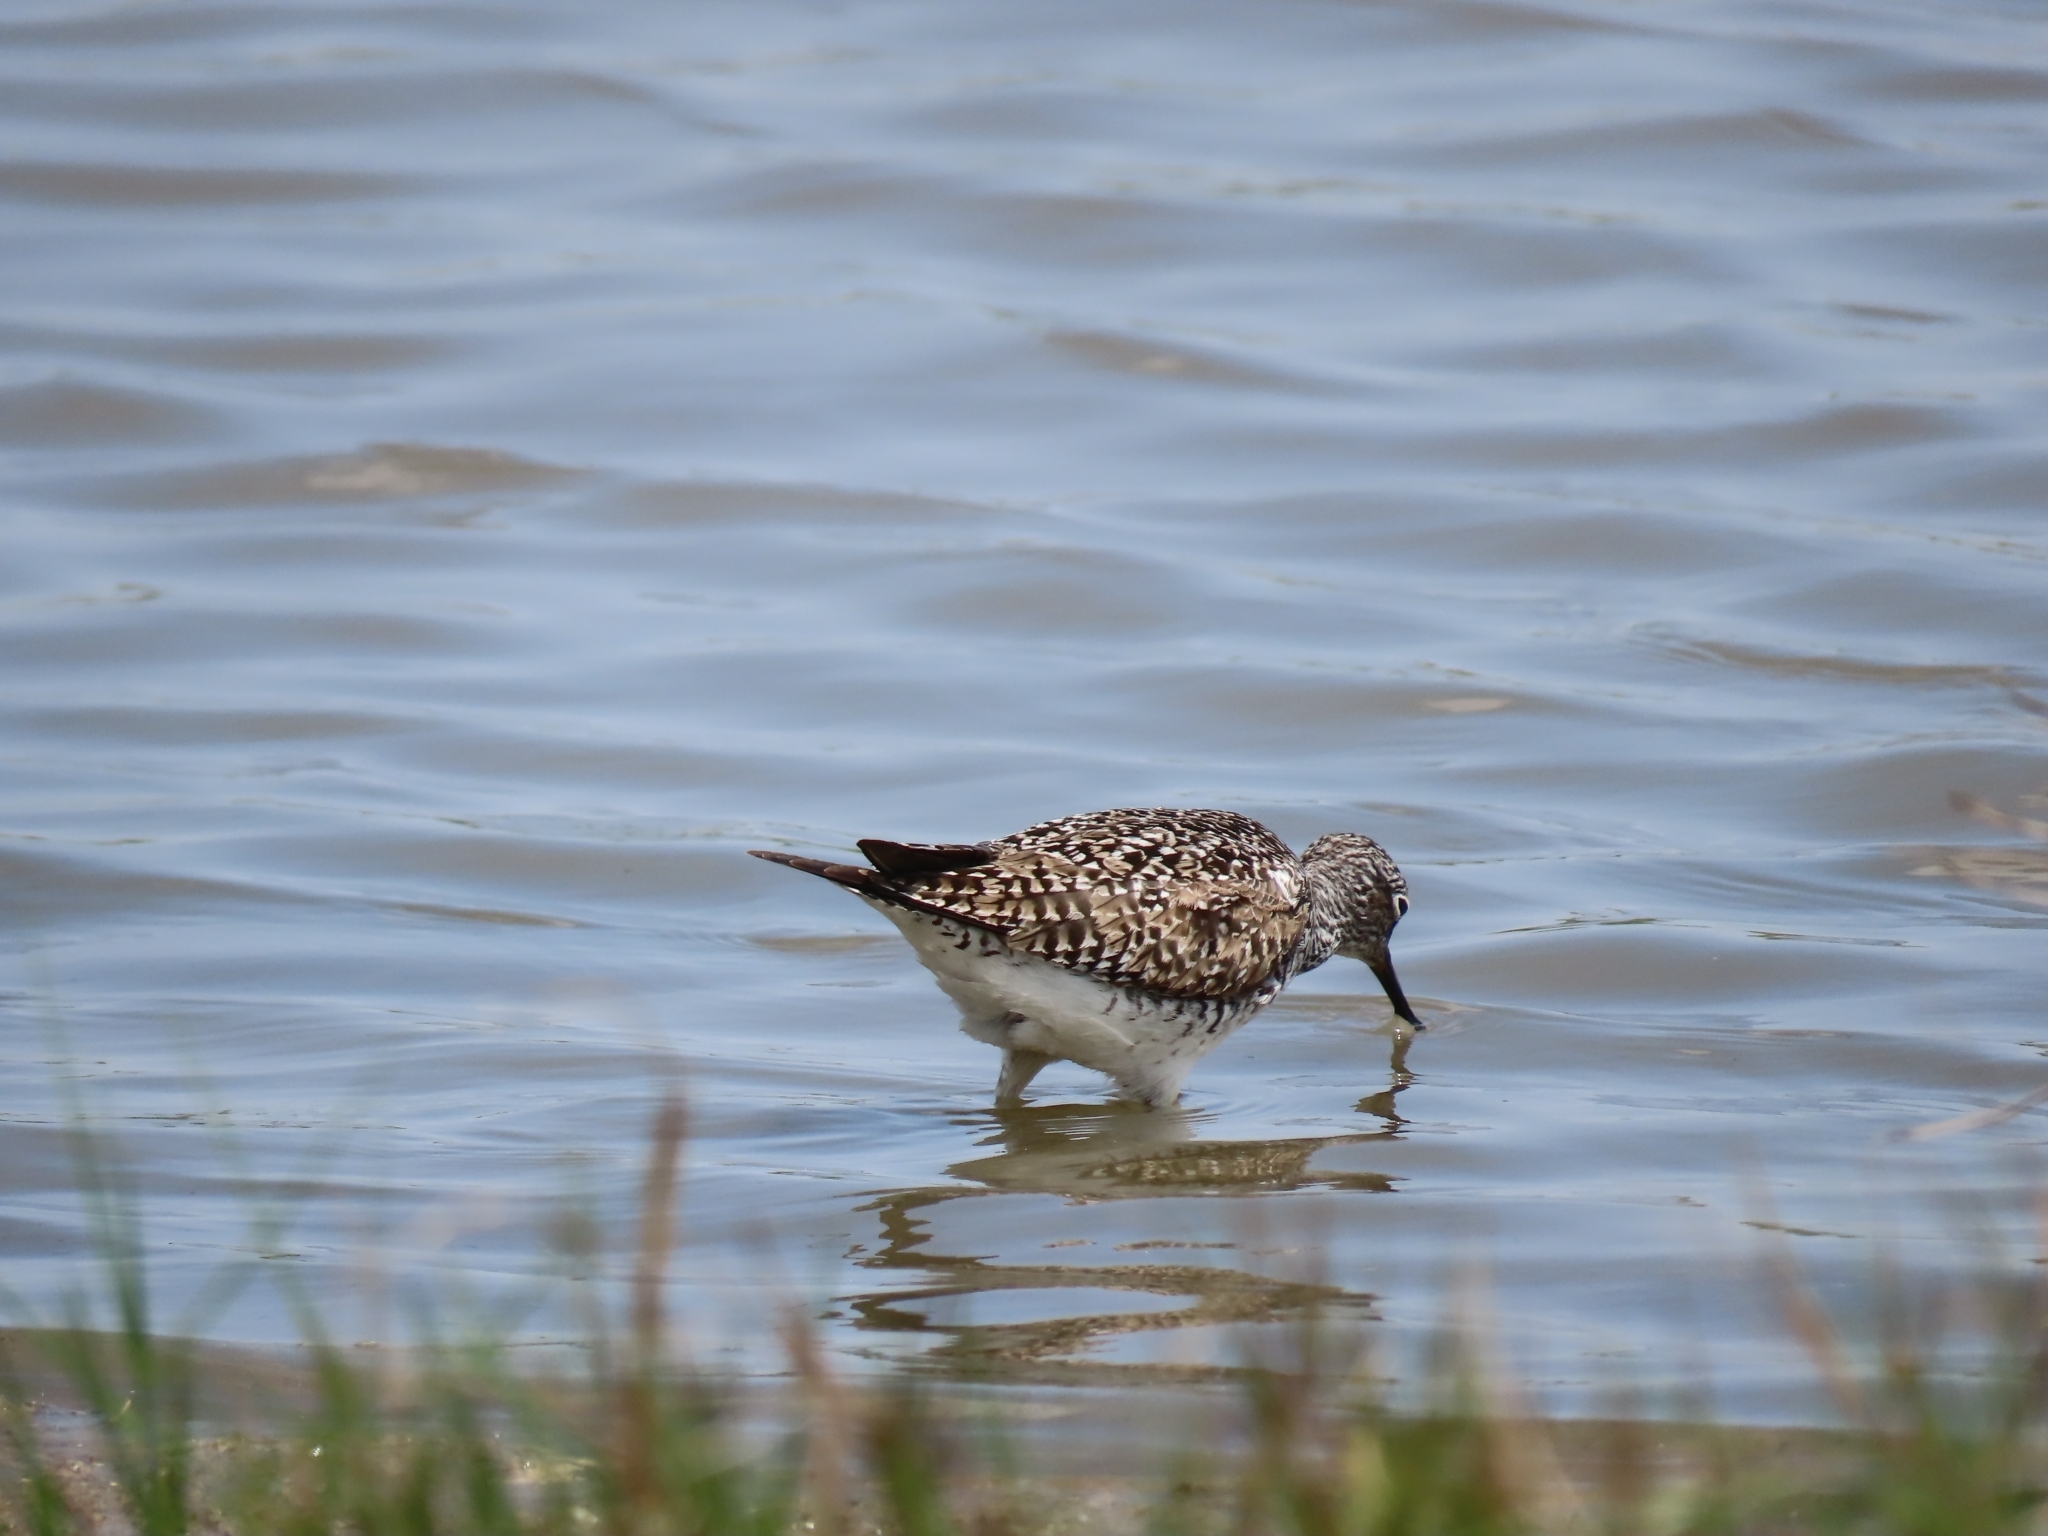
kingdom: Animalia
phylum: Chordata
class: Aves
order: Charadriiformes
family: Scolopacidae
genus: Tringa
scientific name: Tringa flavipes
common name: Lesser yellowlegs
